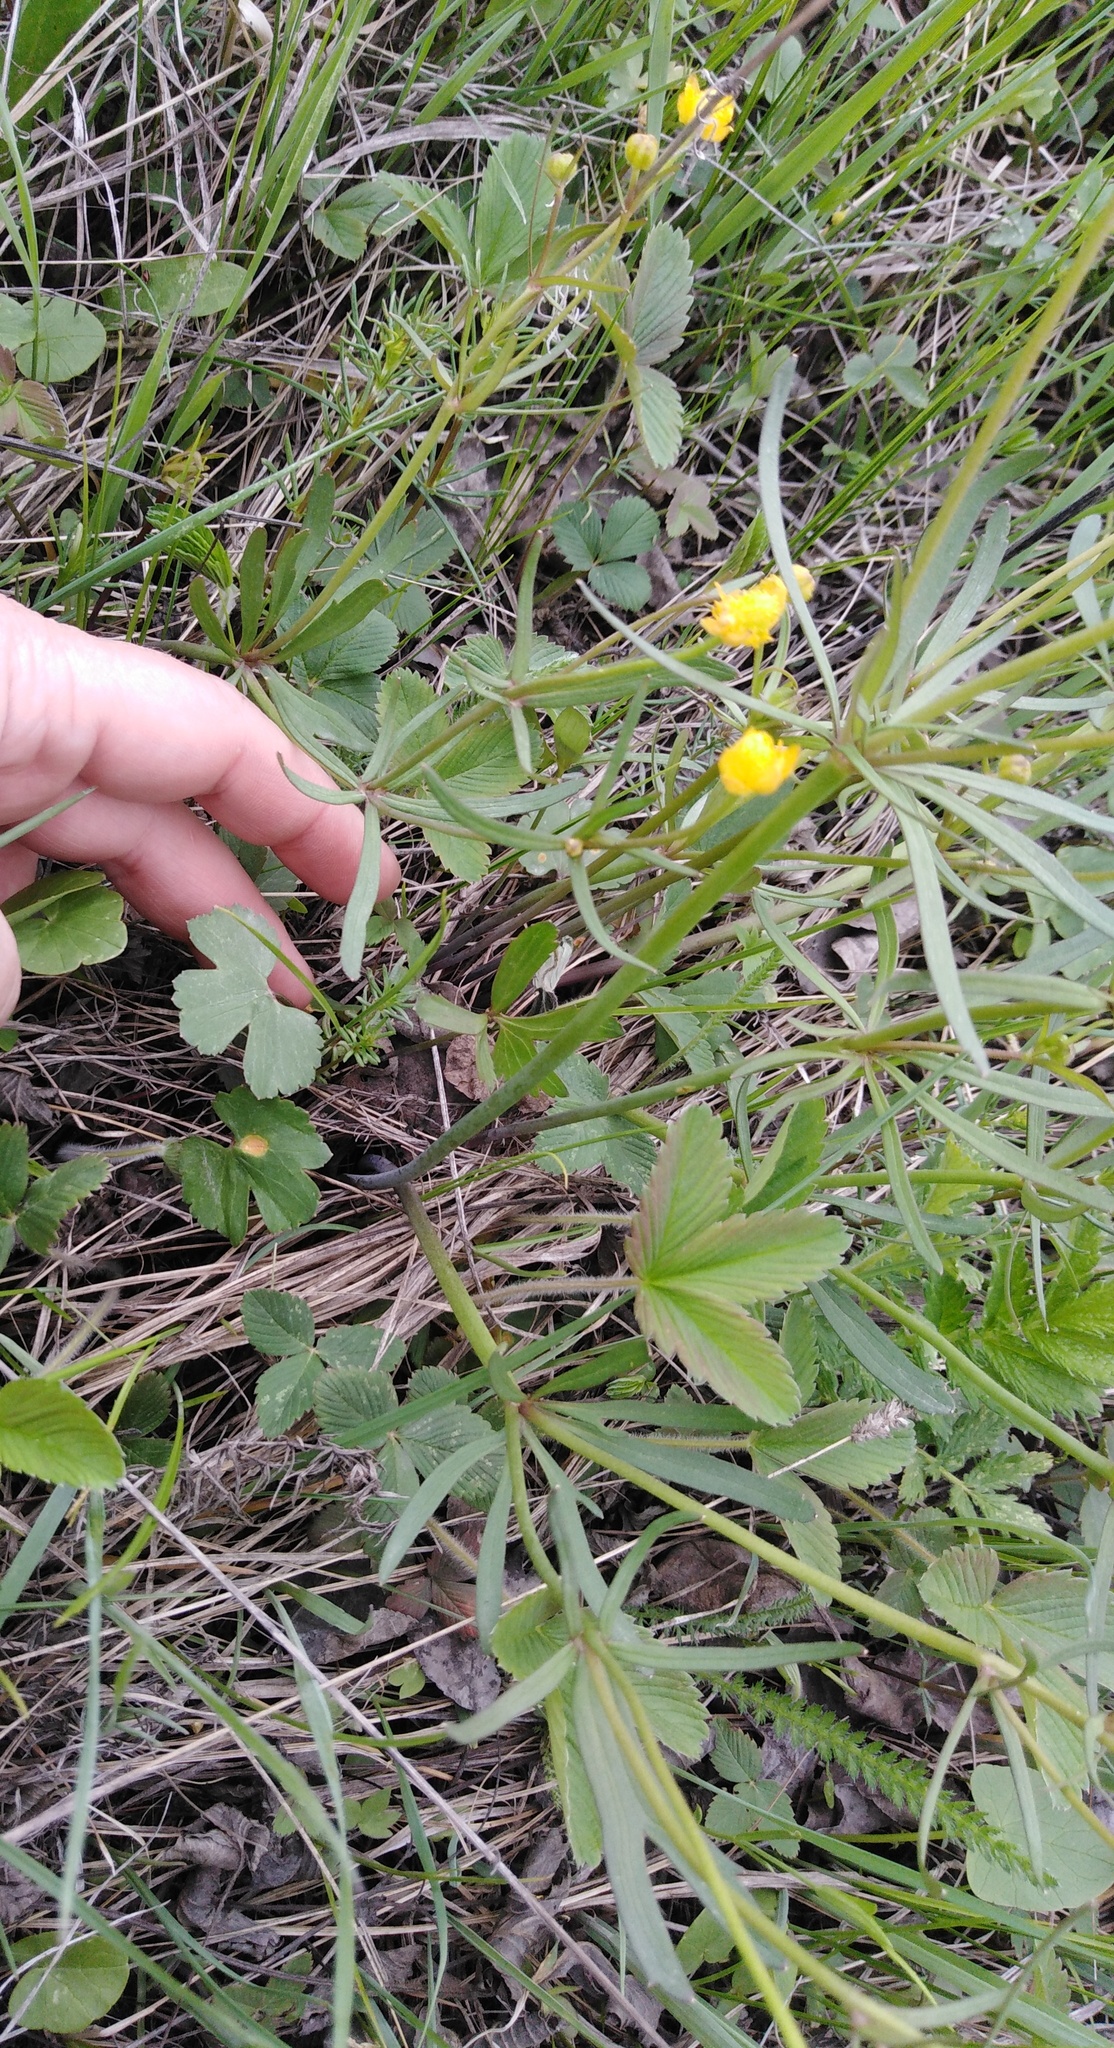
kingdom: Plantae
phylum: Tracheophyta
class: Magnoliopsida
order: Ranunculales
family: Ranunculaceae
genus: Ranunculus
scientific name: Ranunculus auricomus
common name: Goldilocks buttercup
